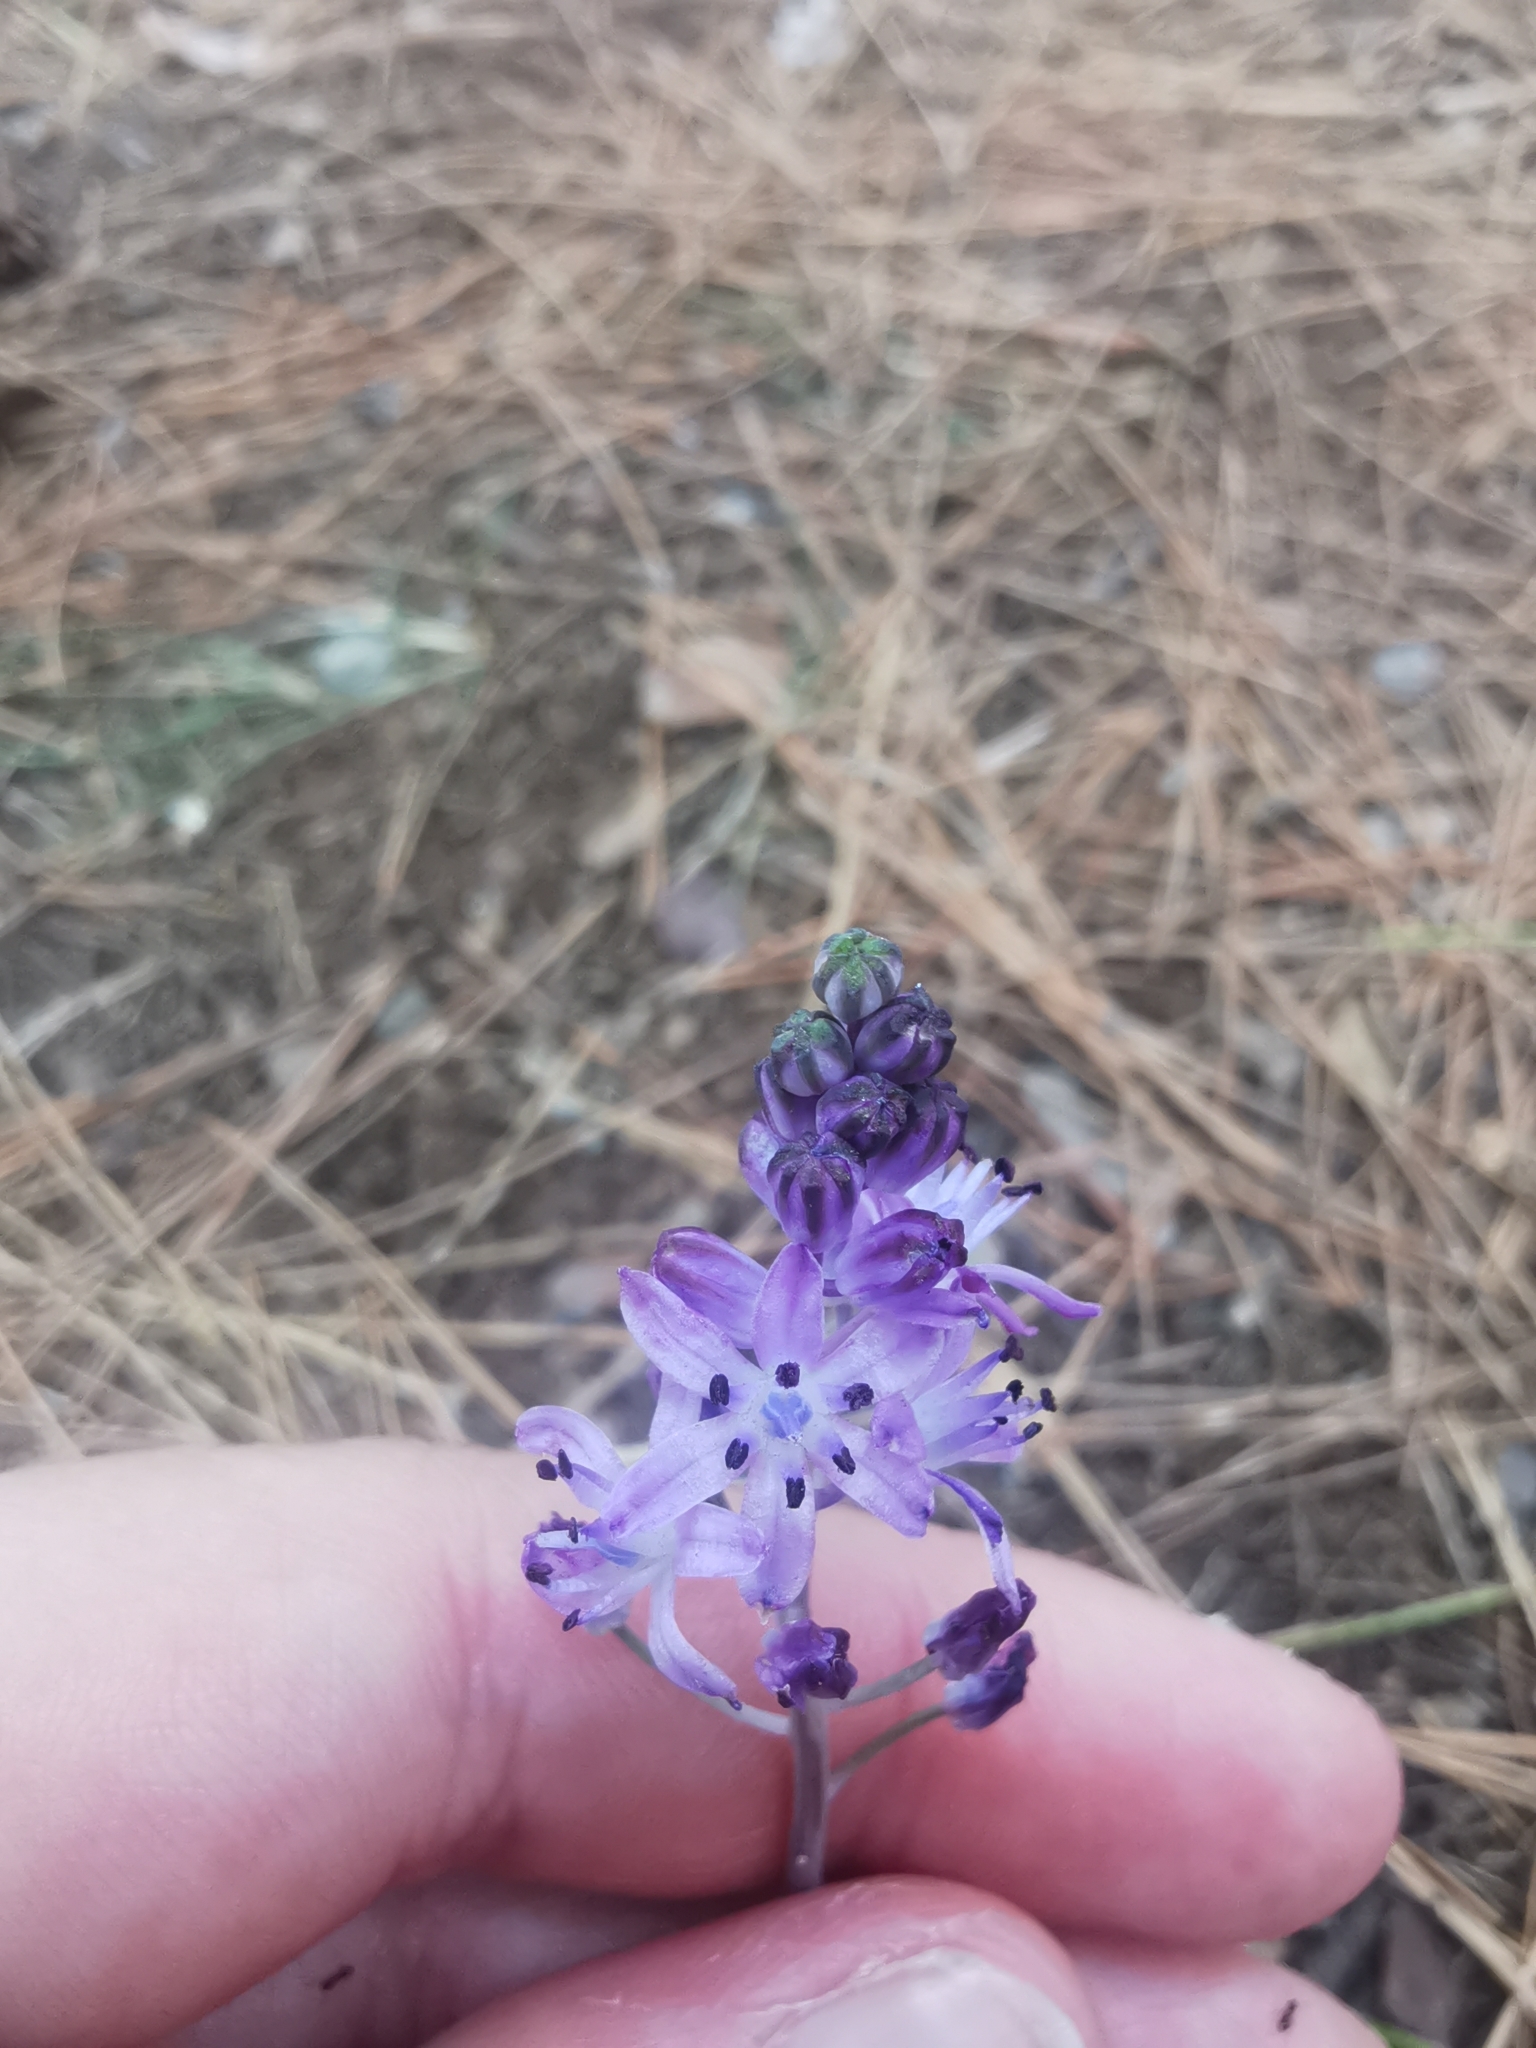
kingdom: Plantae
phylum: Tracheophyta
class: Liliopsida
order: Asparagales
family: Asparagaceae
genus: Prospero
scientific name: Prospero autumnale
